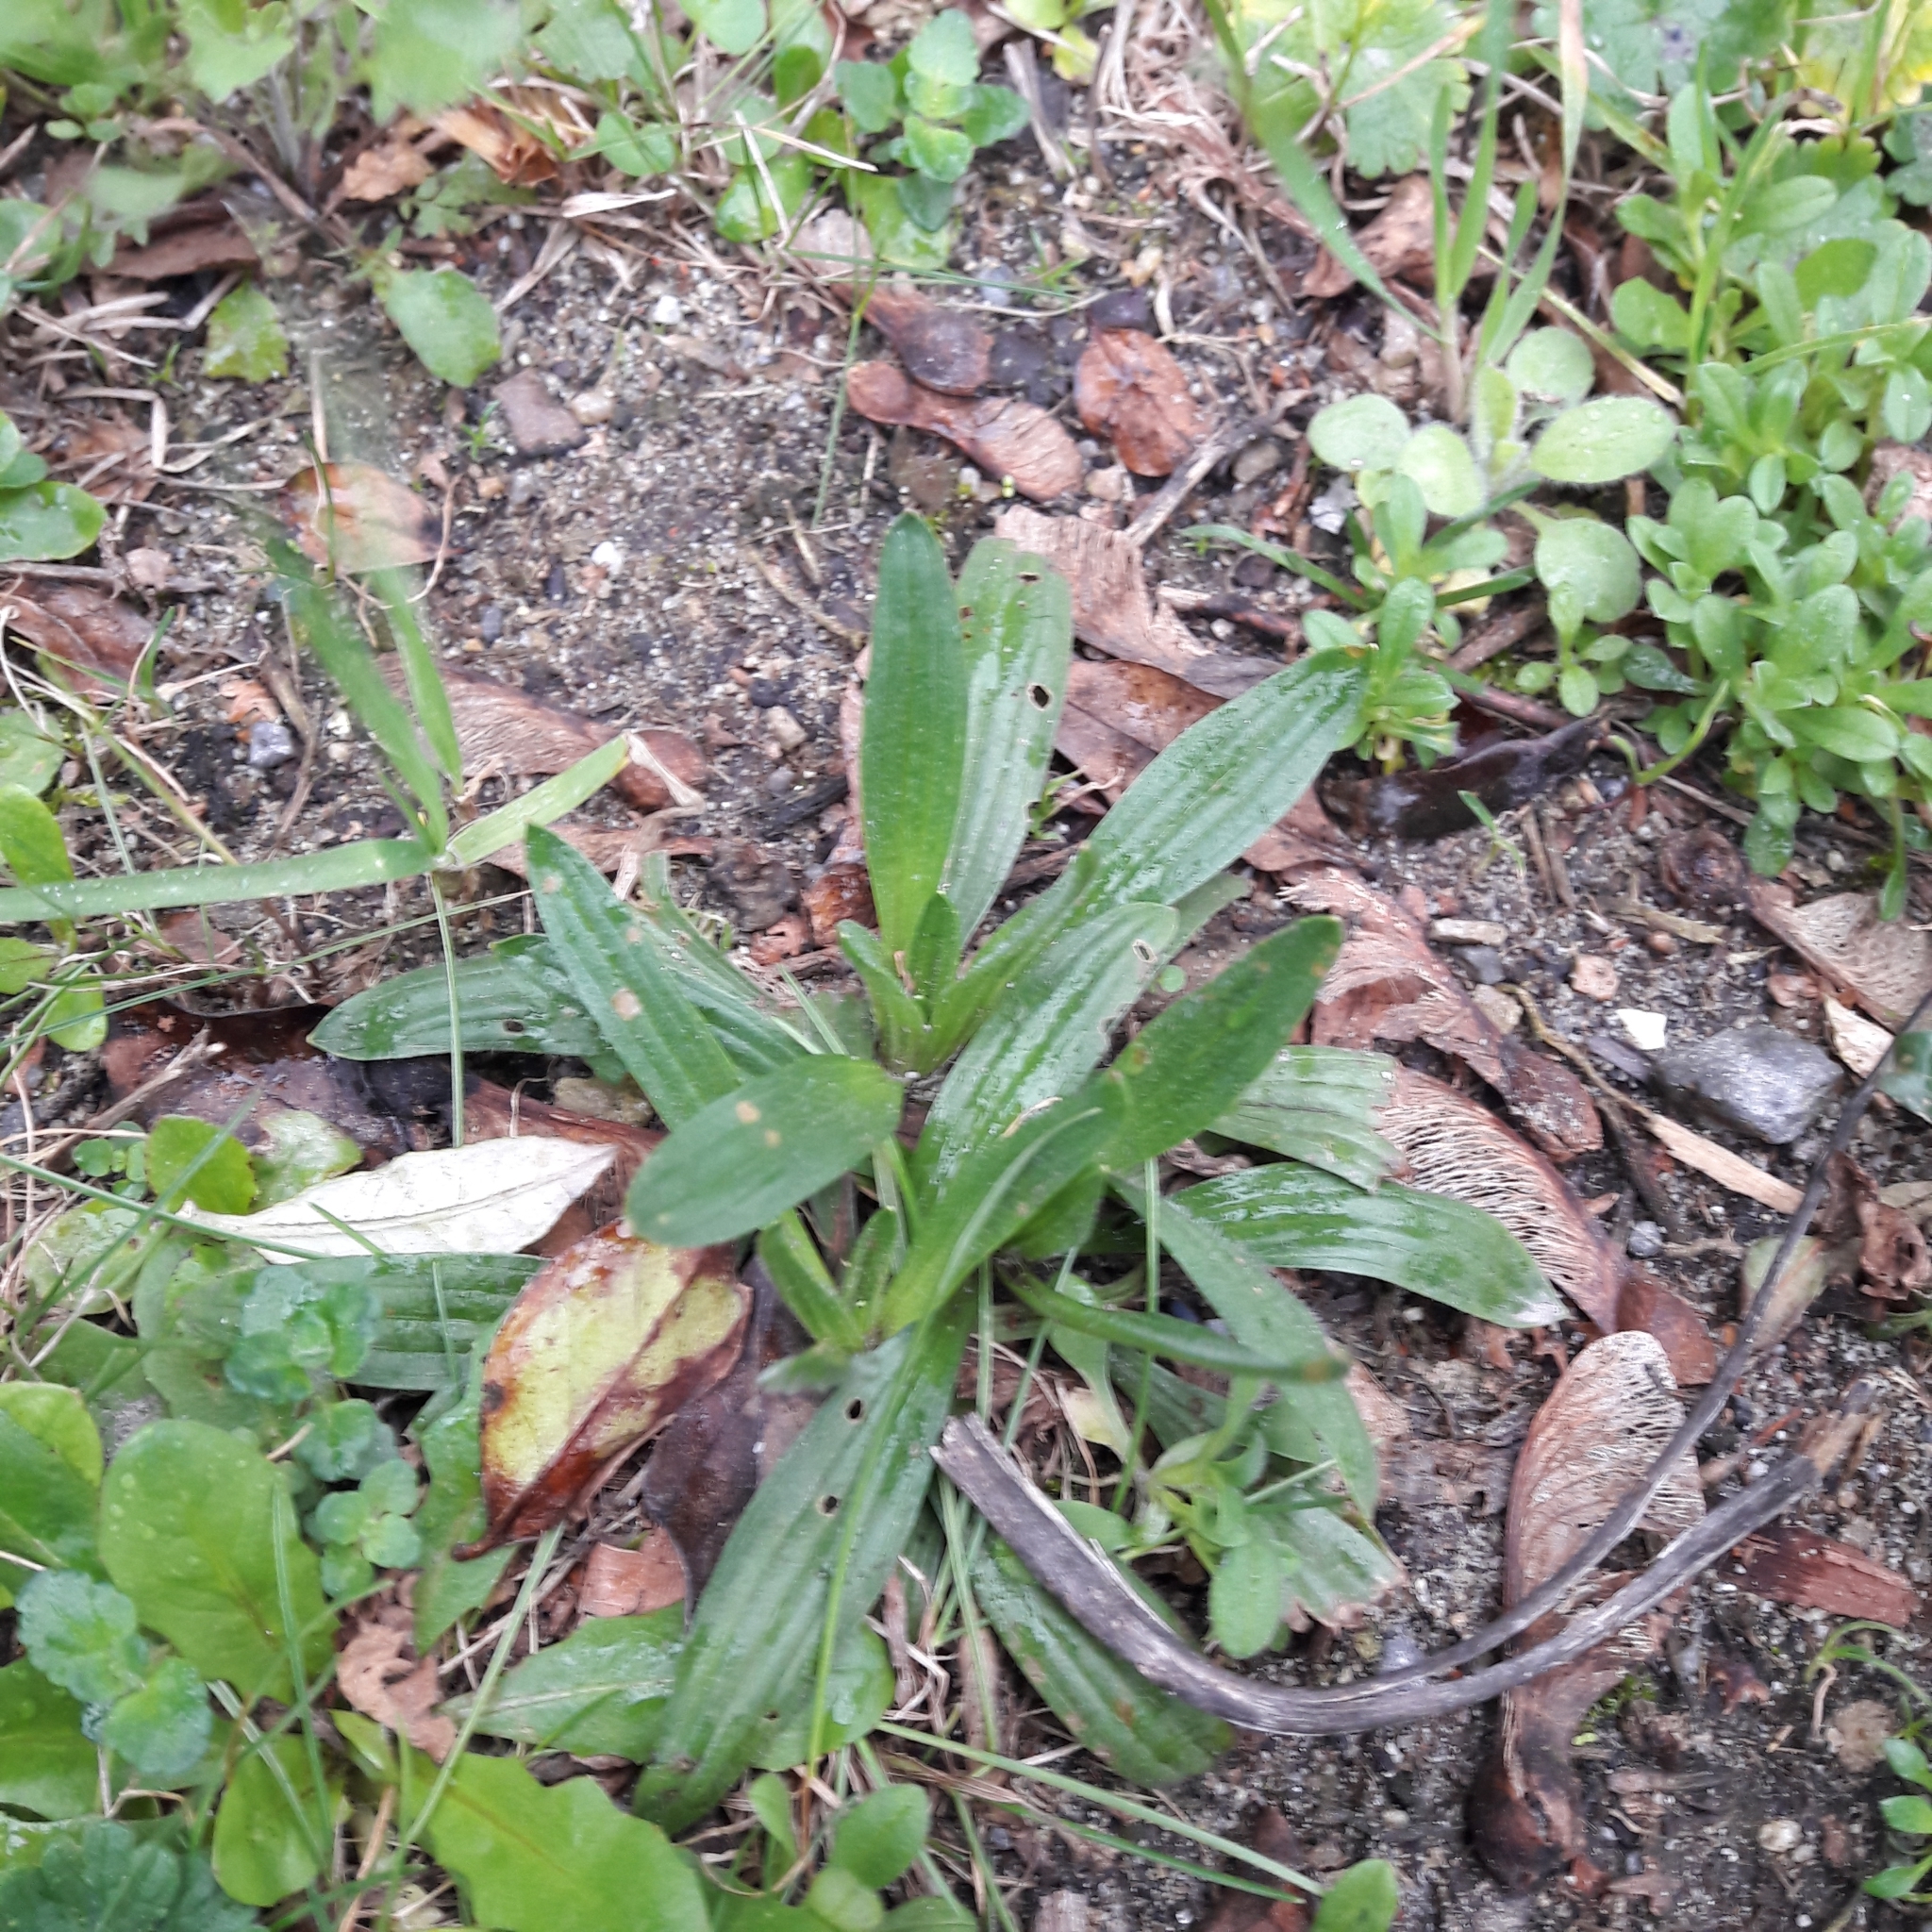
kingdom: Plantae
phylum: Tracheophyta
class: Magnoliopsida
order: Lamiales
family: Plantaginaceae
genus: Plantago
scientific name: Plantago lanceolata
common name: Ribwort plantain
